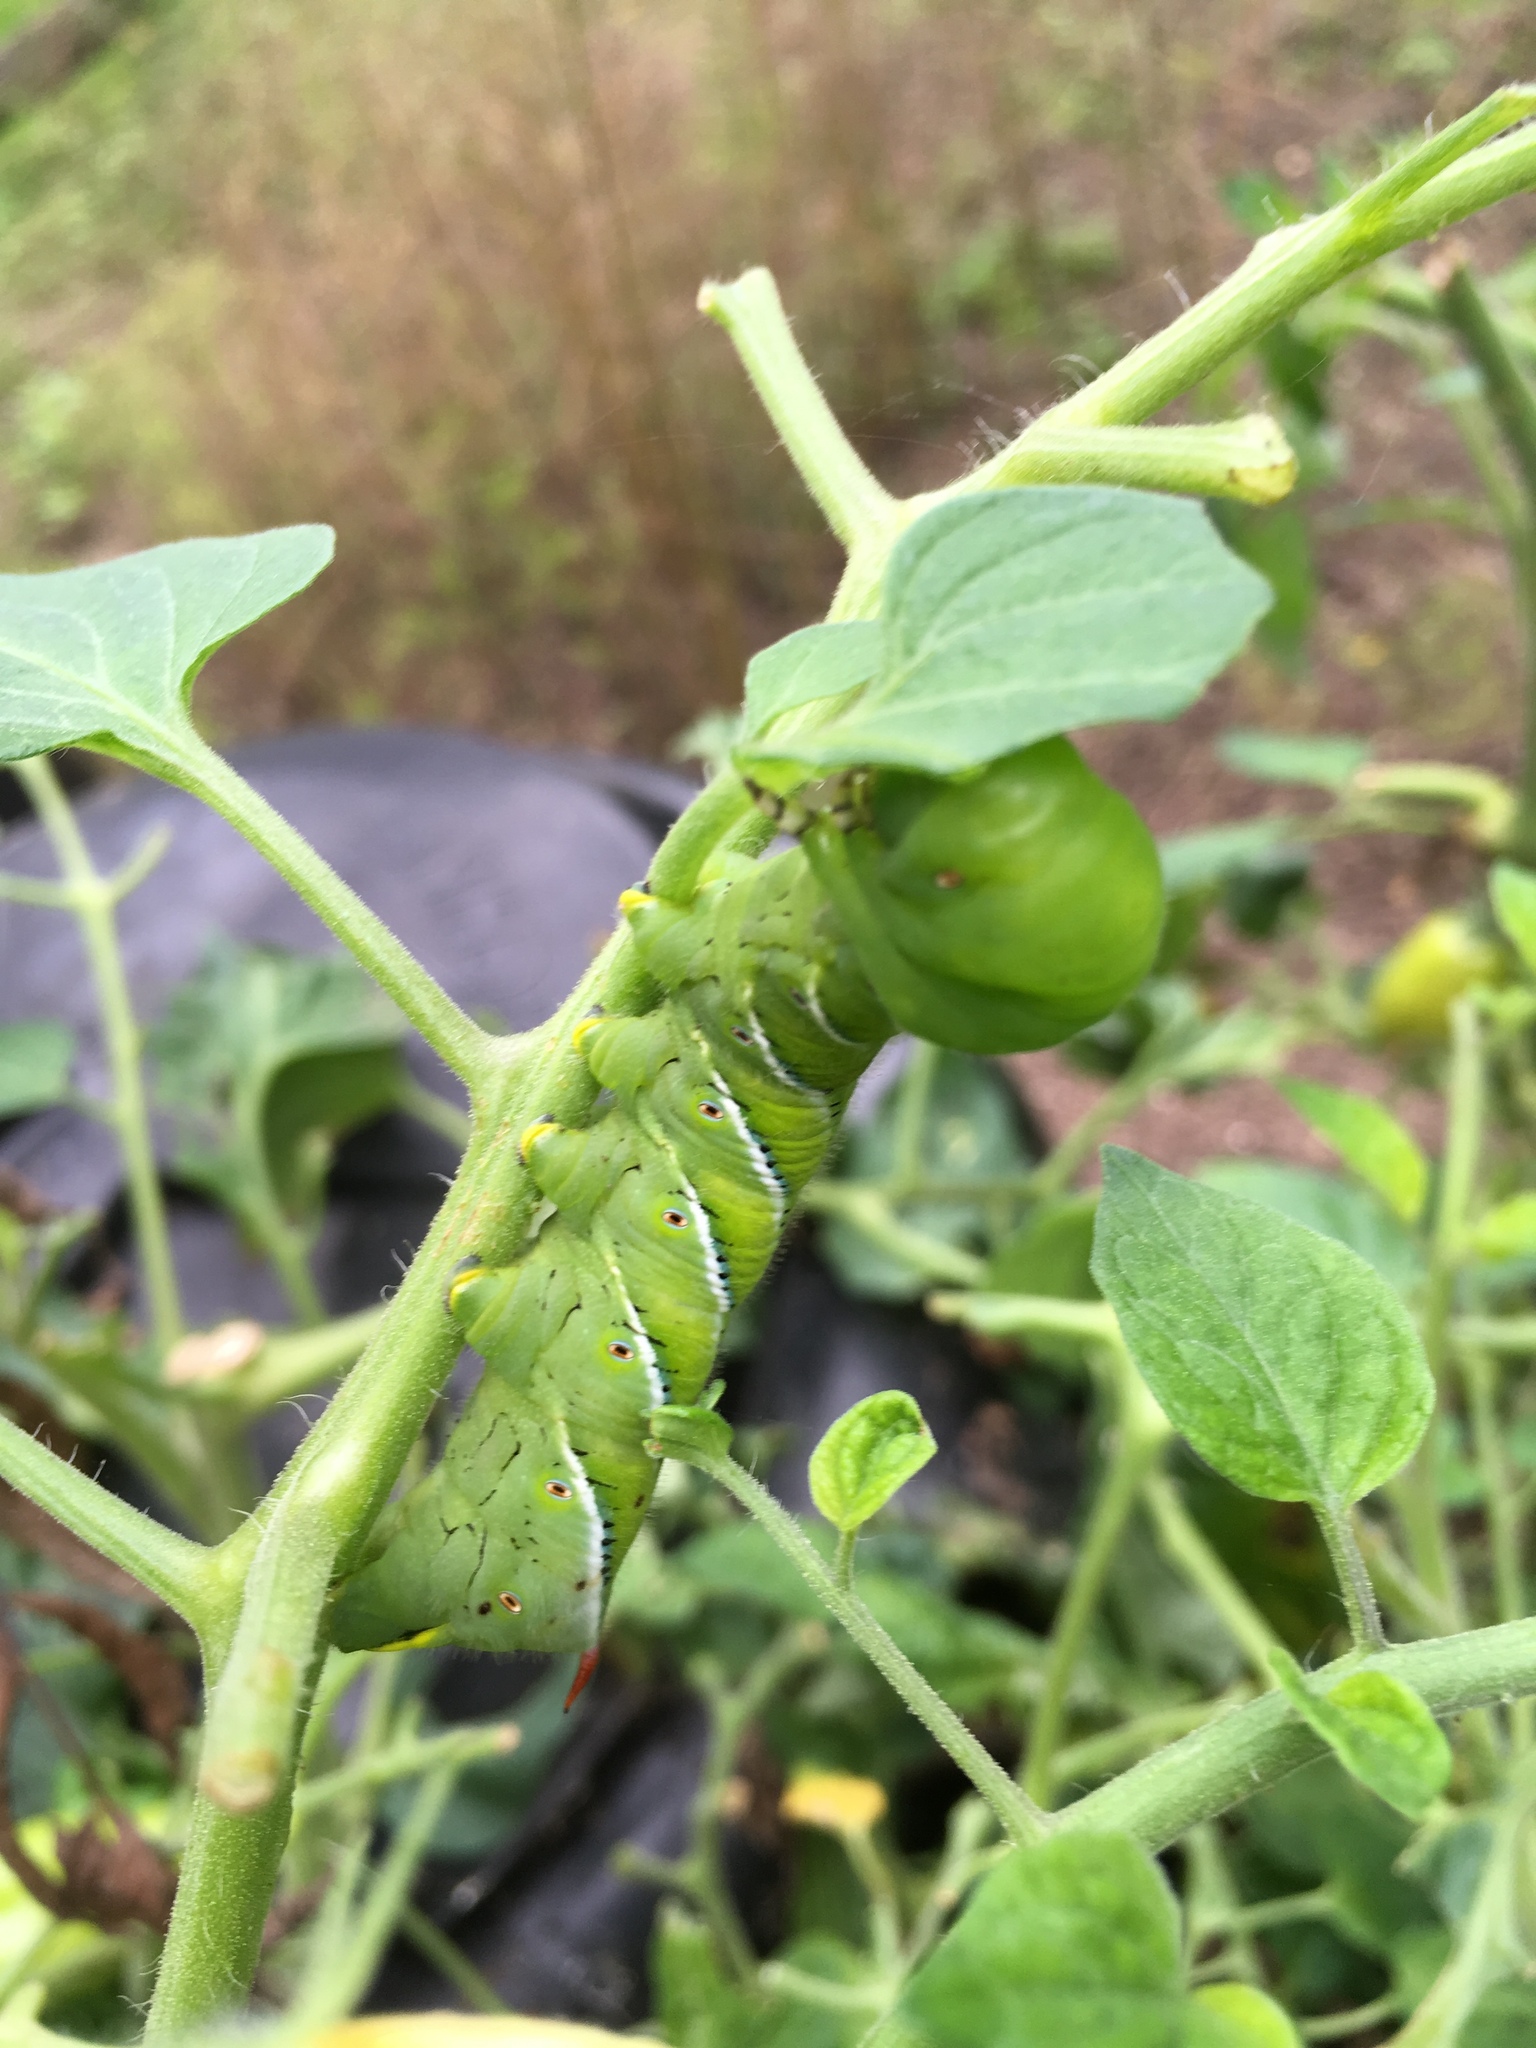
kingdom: Animalia
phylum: Arthropoda
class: Insecta
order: Lepidoptera
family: Sphingidae
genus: Manduca
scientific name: Manduca sexta
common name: Carolina sphinx
